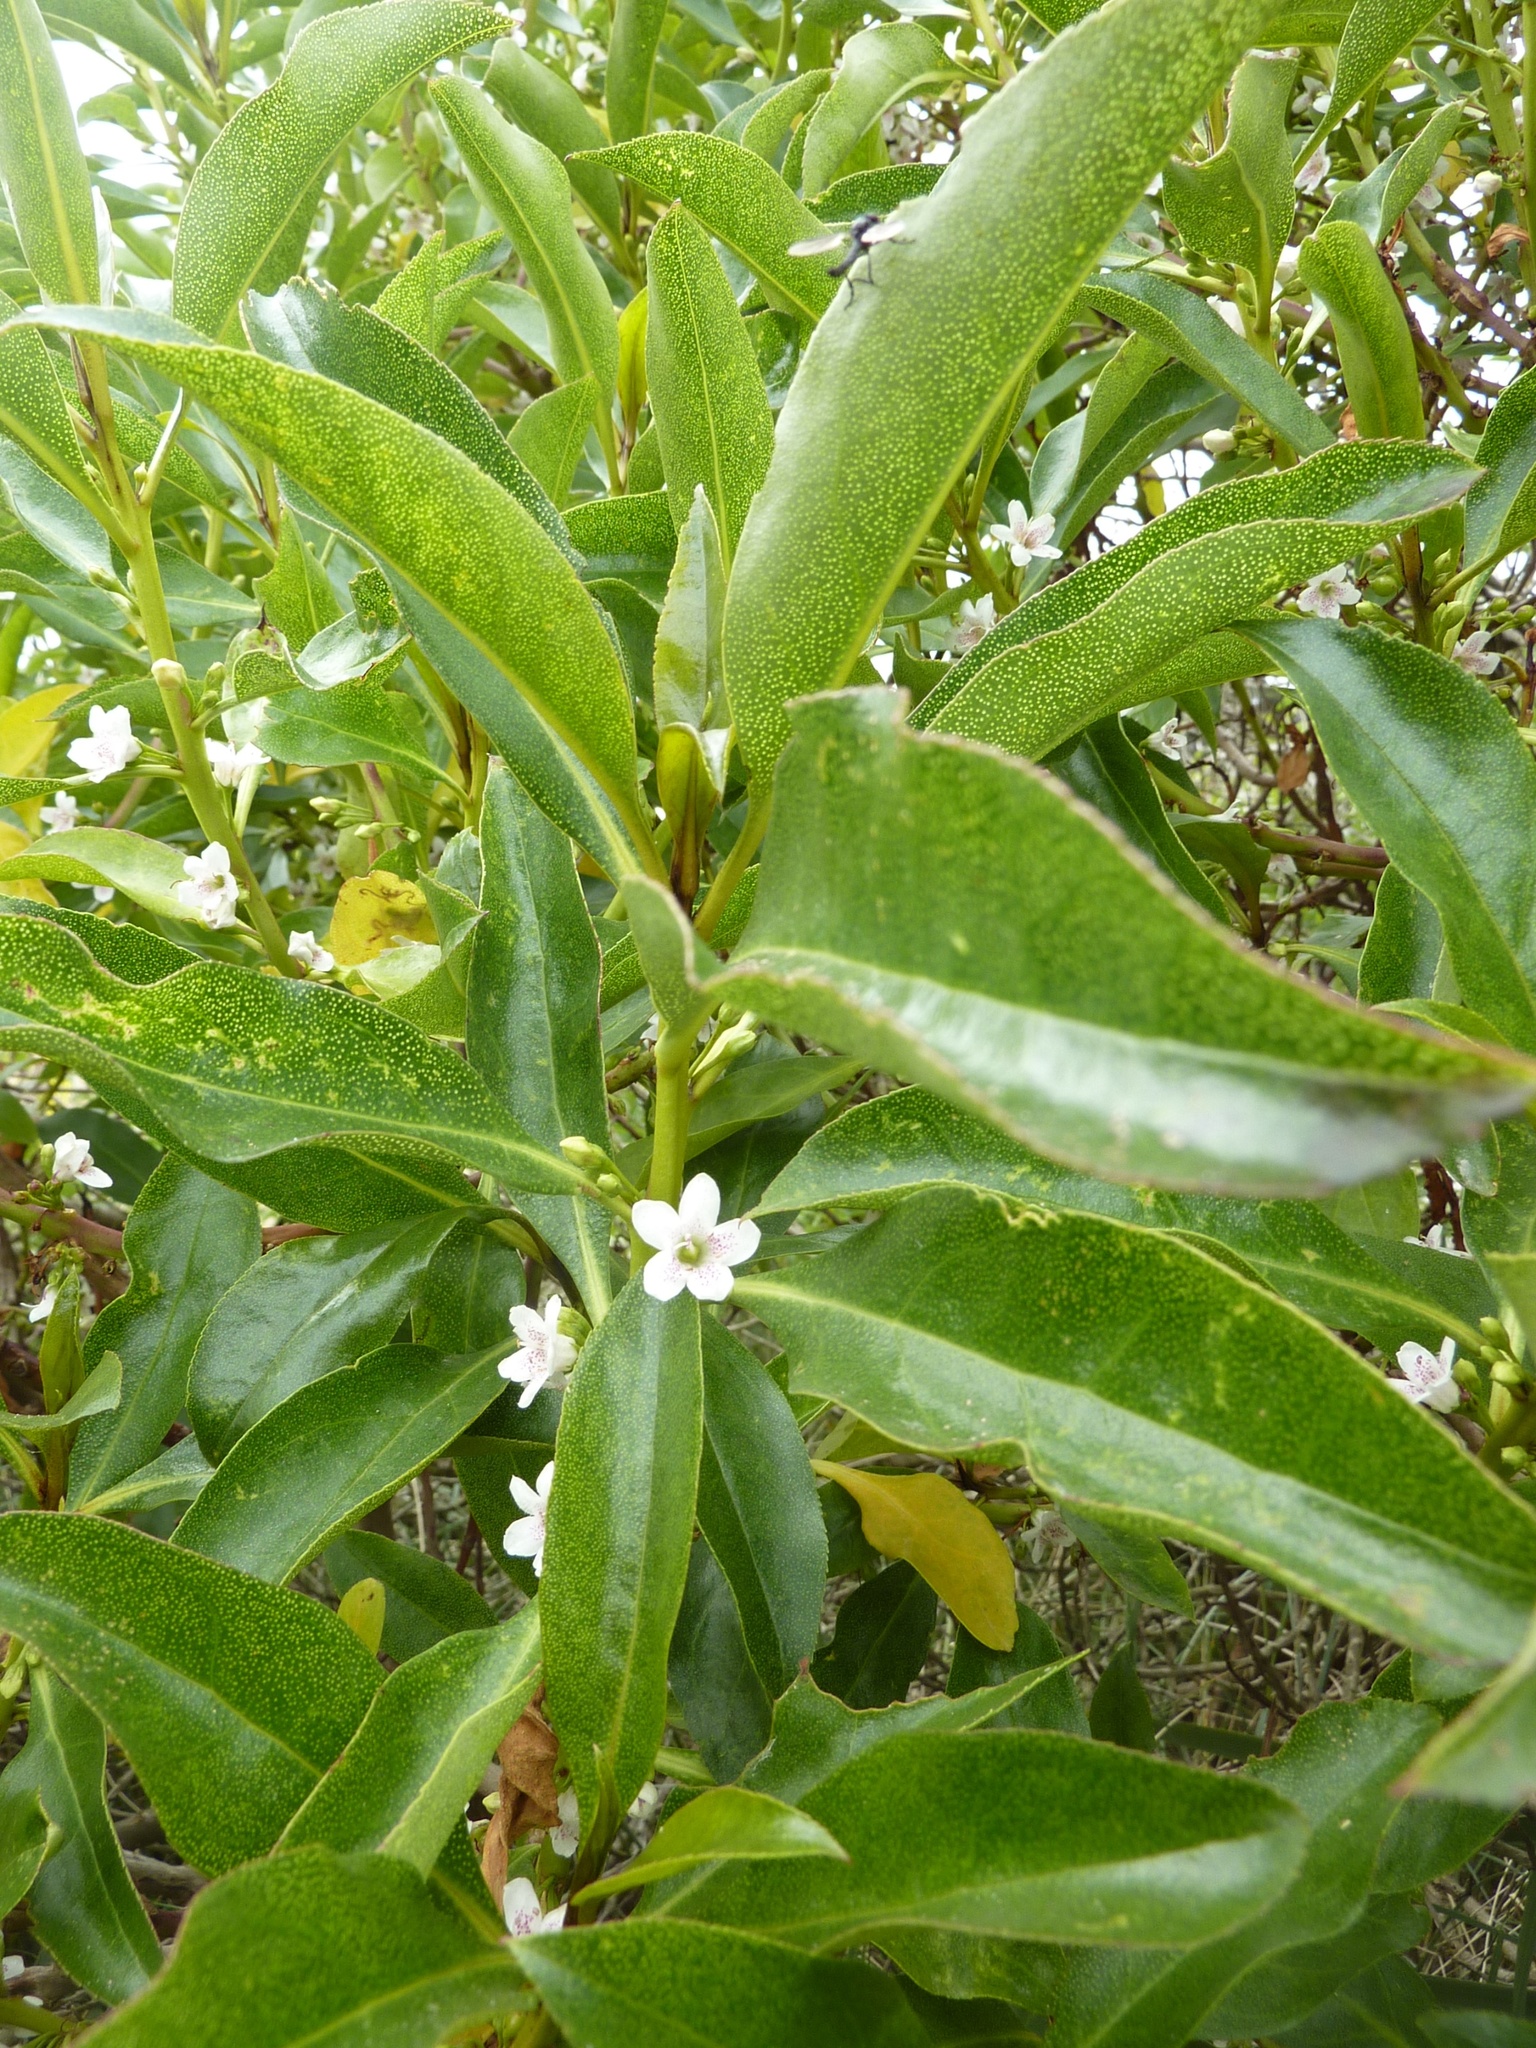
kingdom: Plantae
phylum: Tracheophyta
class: Magnoliopsida
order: Lamiales
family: Scrophulariaceae
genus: Myoporum
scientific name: Myoporum laetum
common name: Ngaio tree
